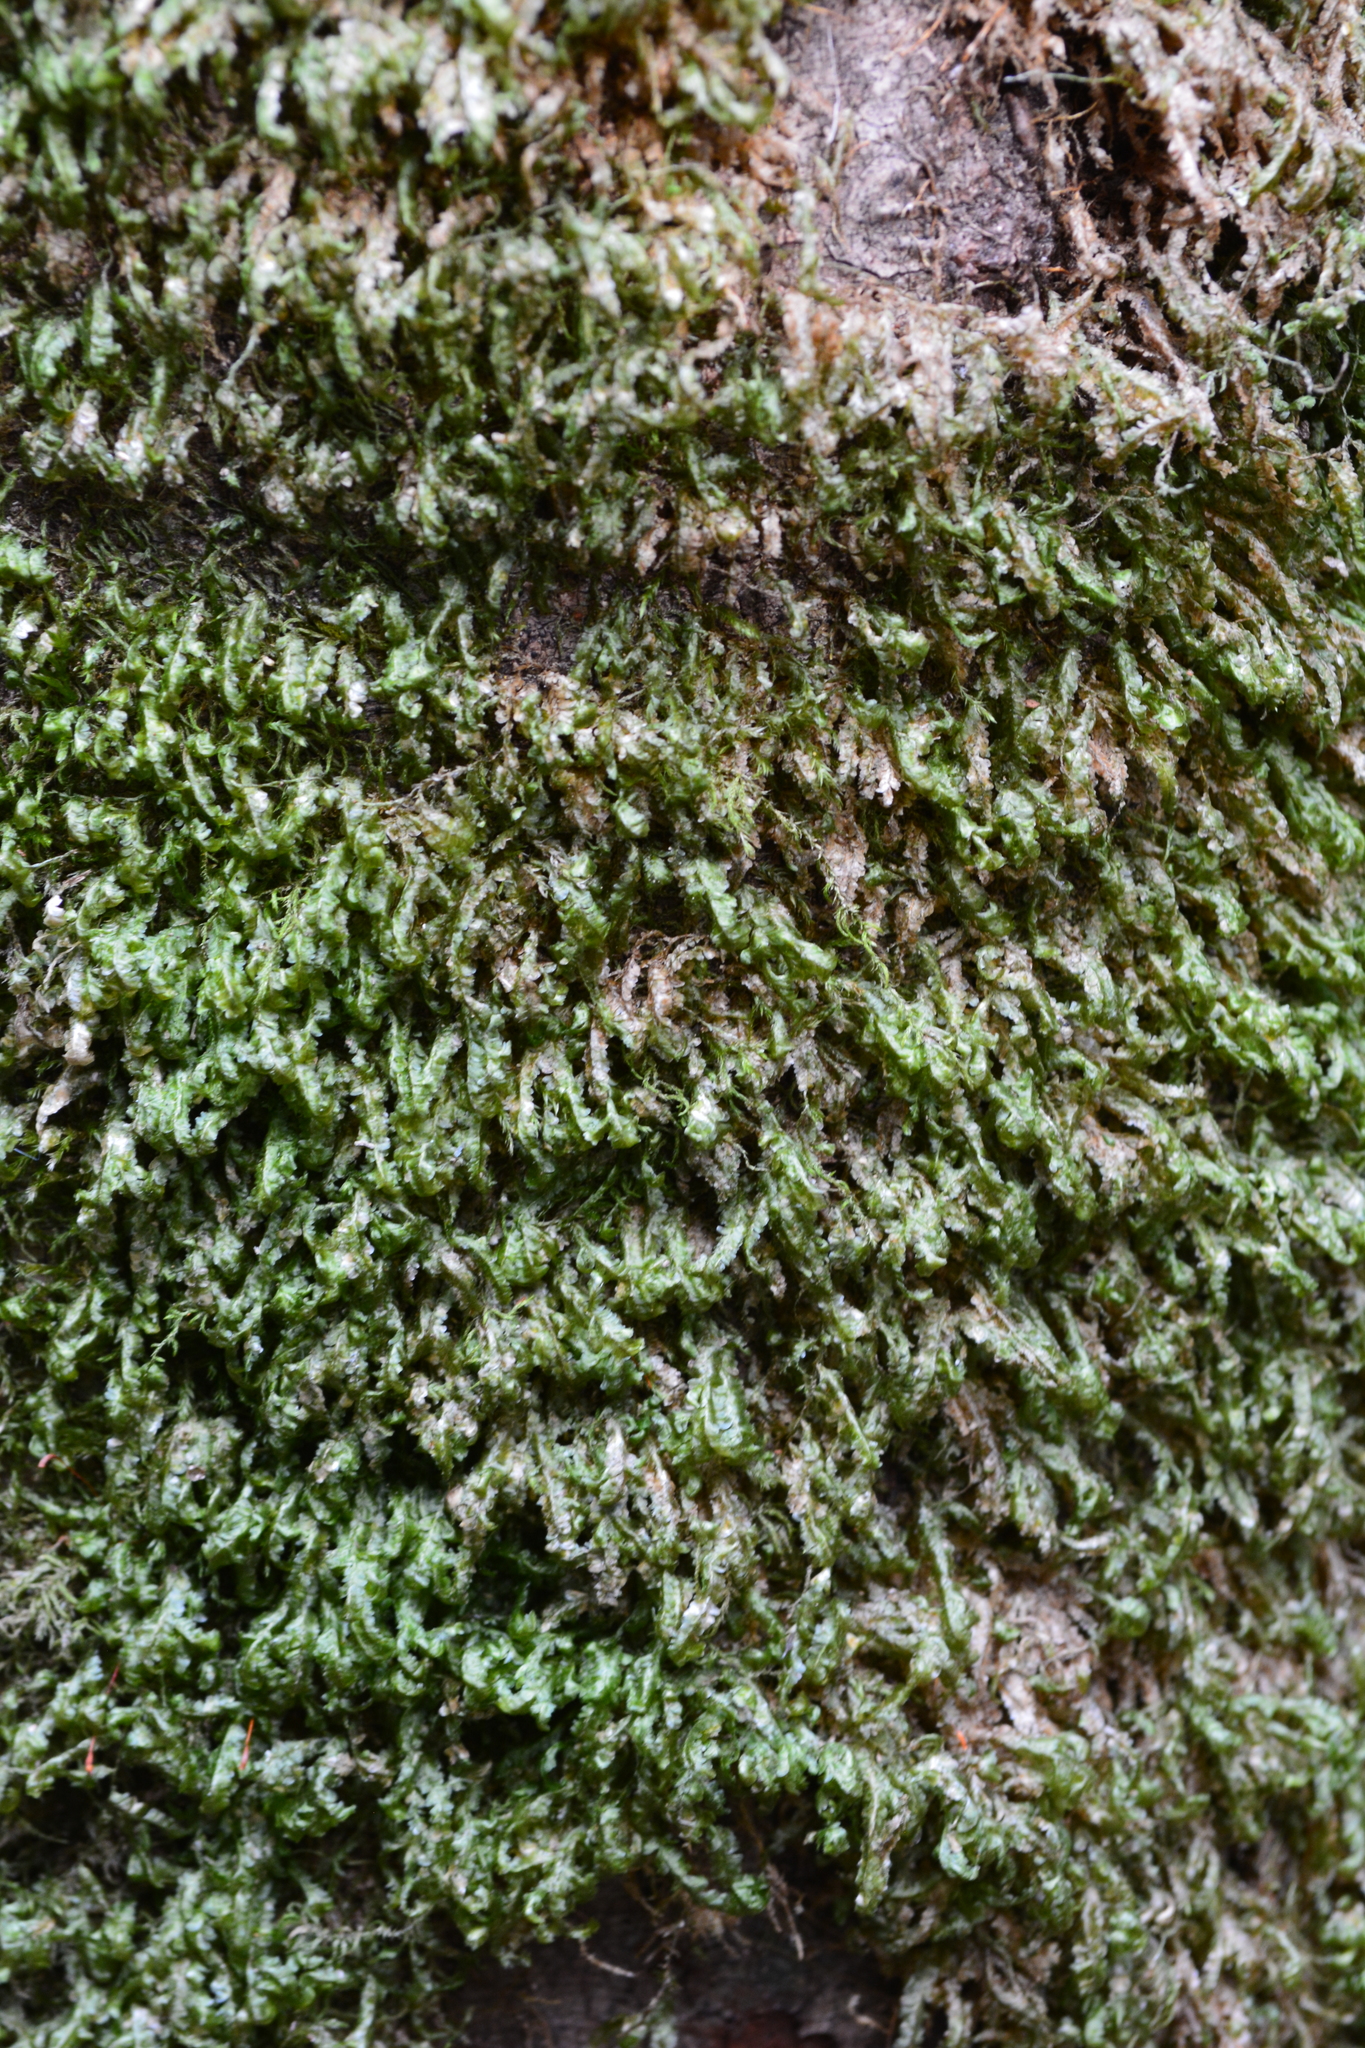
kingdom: Plantae
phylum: Bryophyta
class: Bryopsida
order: Hypnales
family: Neckeraceae
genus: Homalia
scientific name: Homalia trichomanoides
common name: Lime homalia moss
